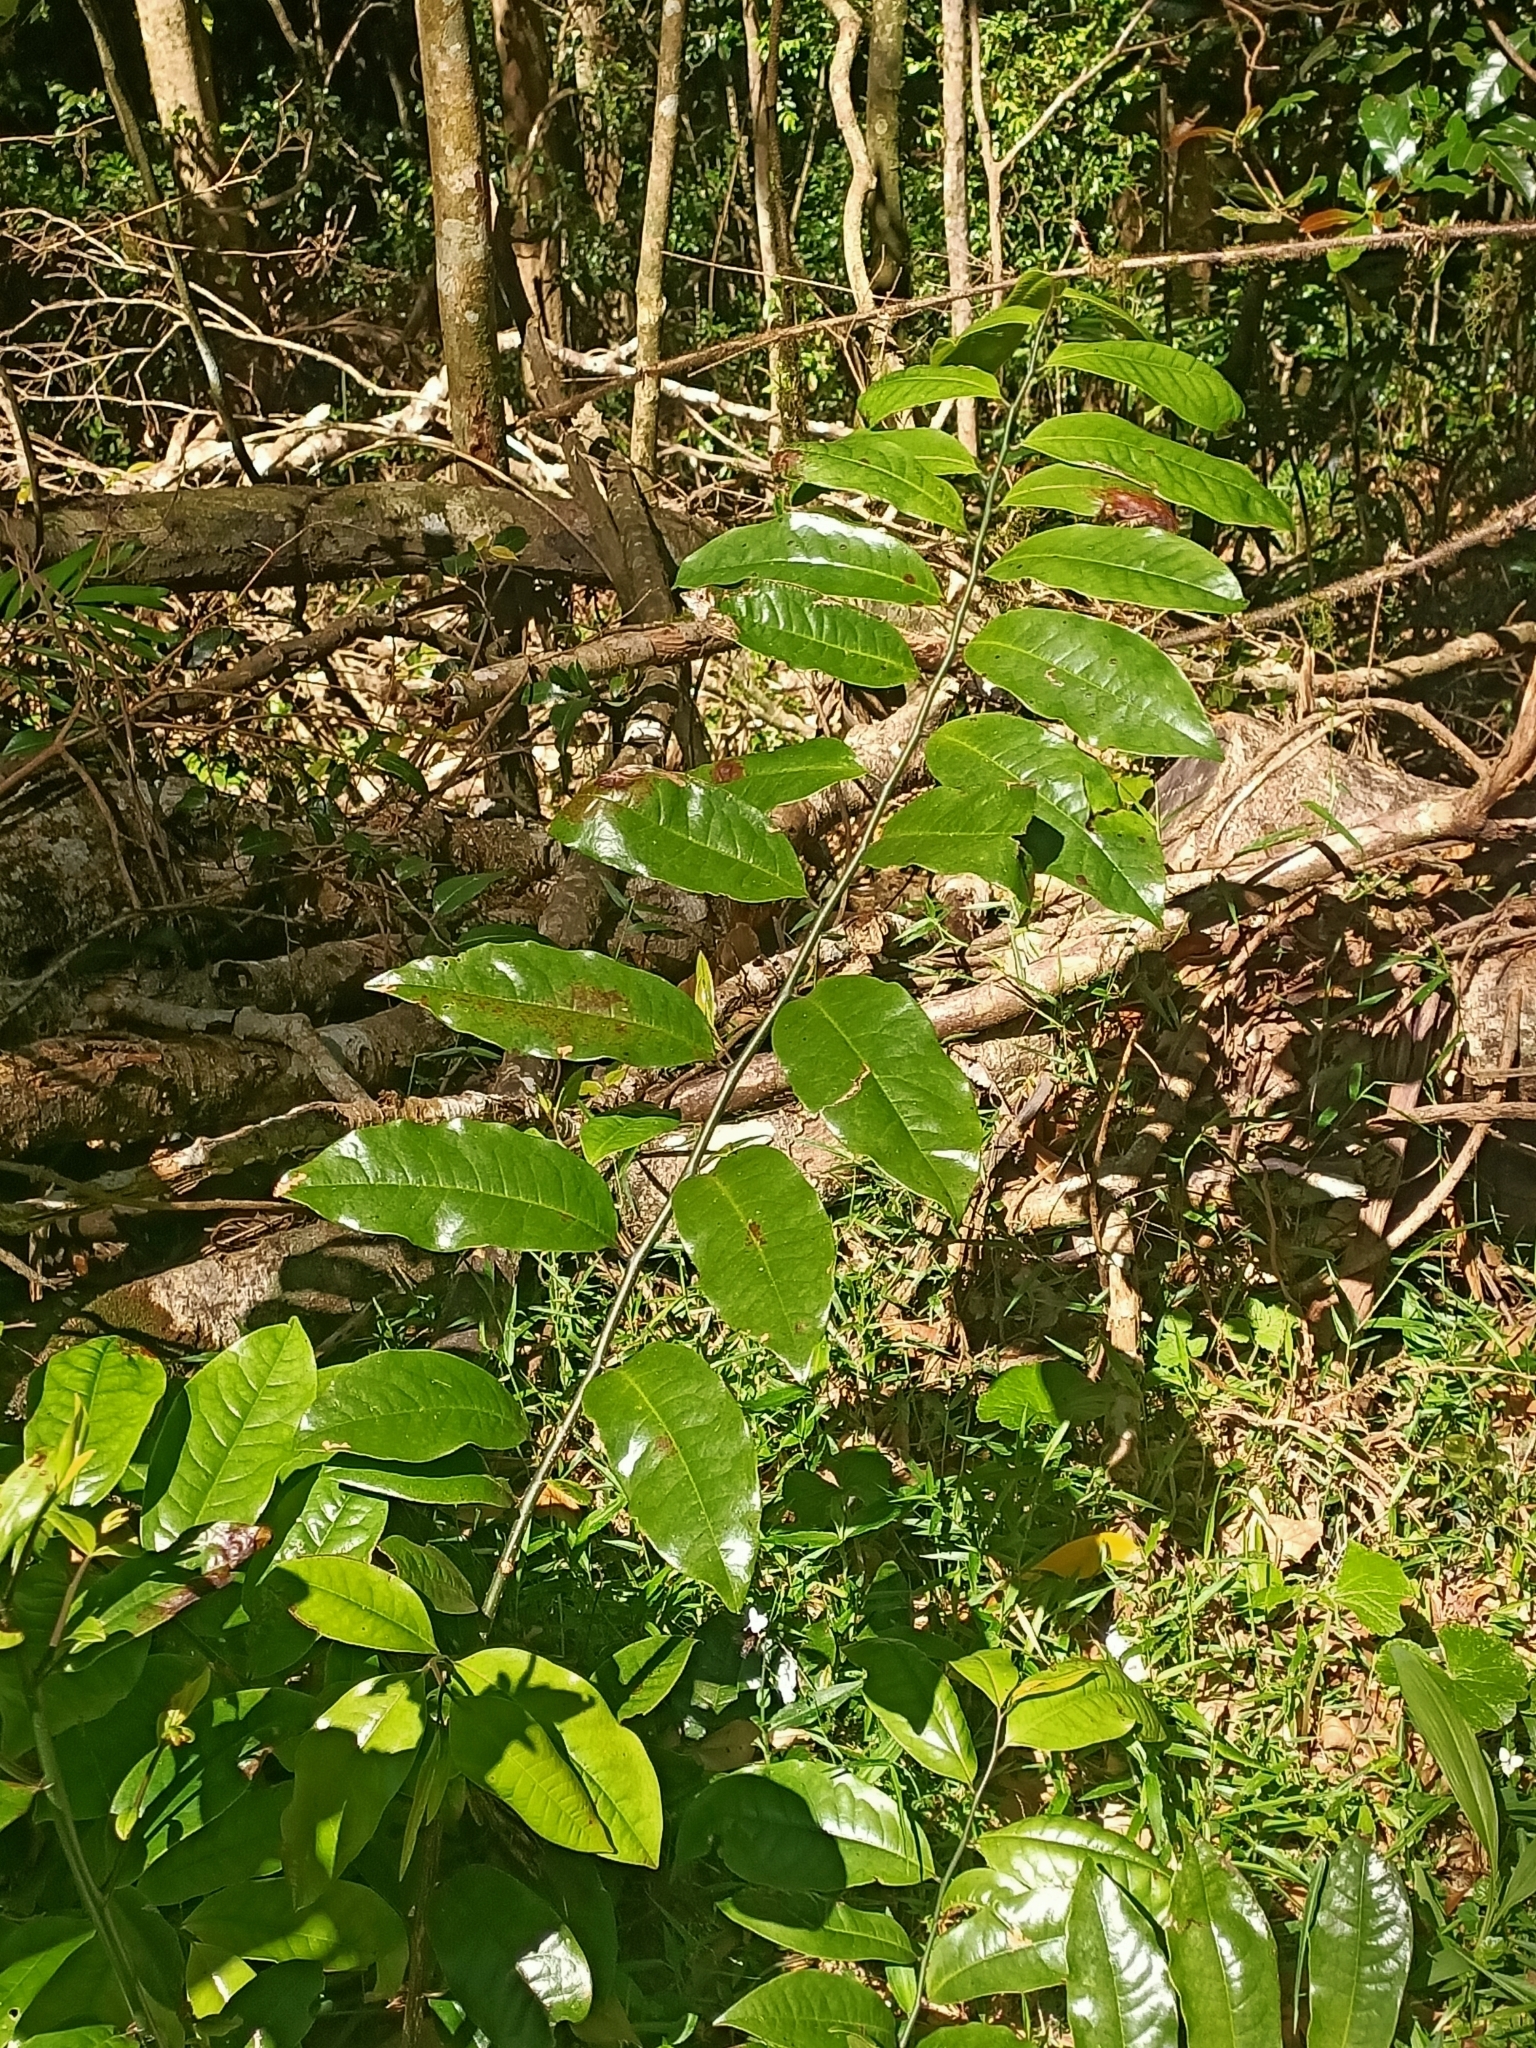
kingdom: Plantae
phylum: Tracheophyta
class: Magnoliopsida
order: Magnoliales
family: Eupomatiaceae
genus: Eupomatia
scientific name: Eupomatia laurina
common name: Bolwarra
